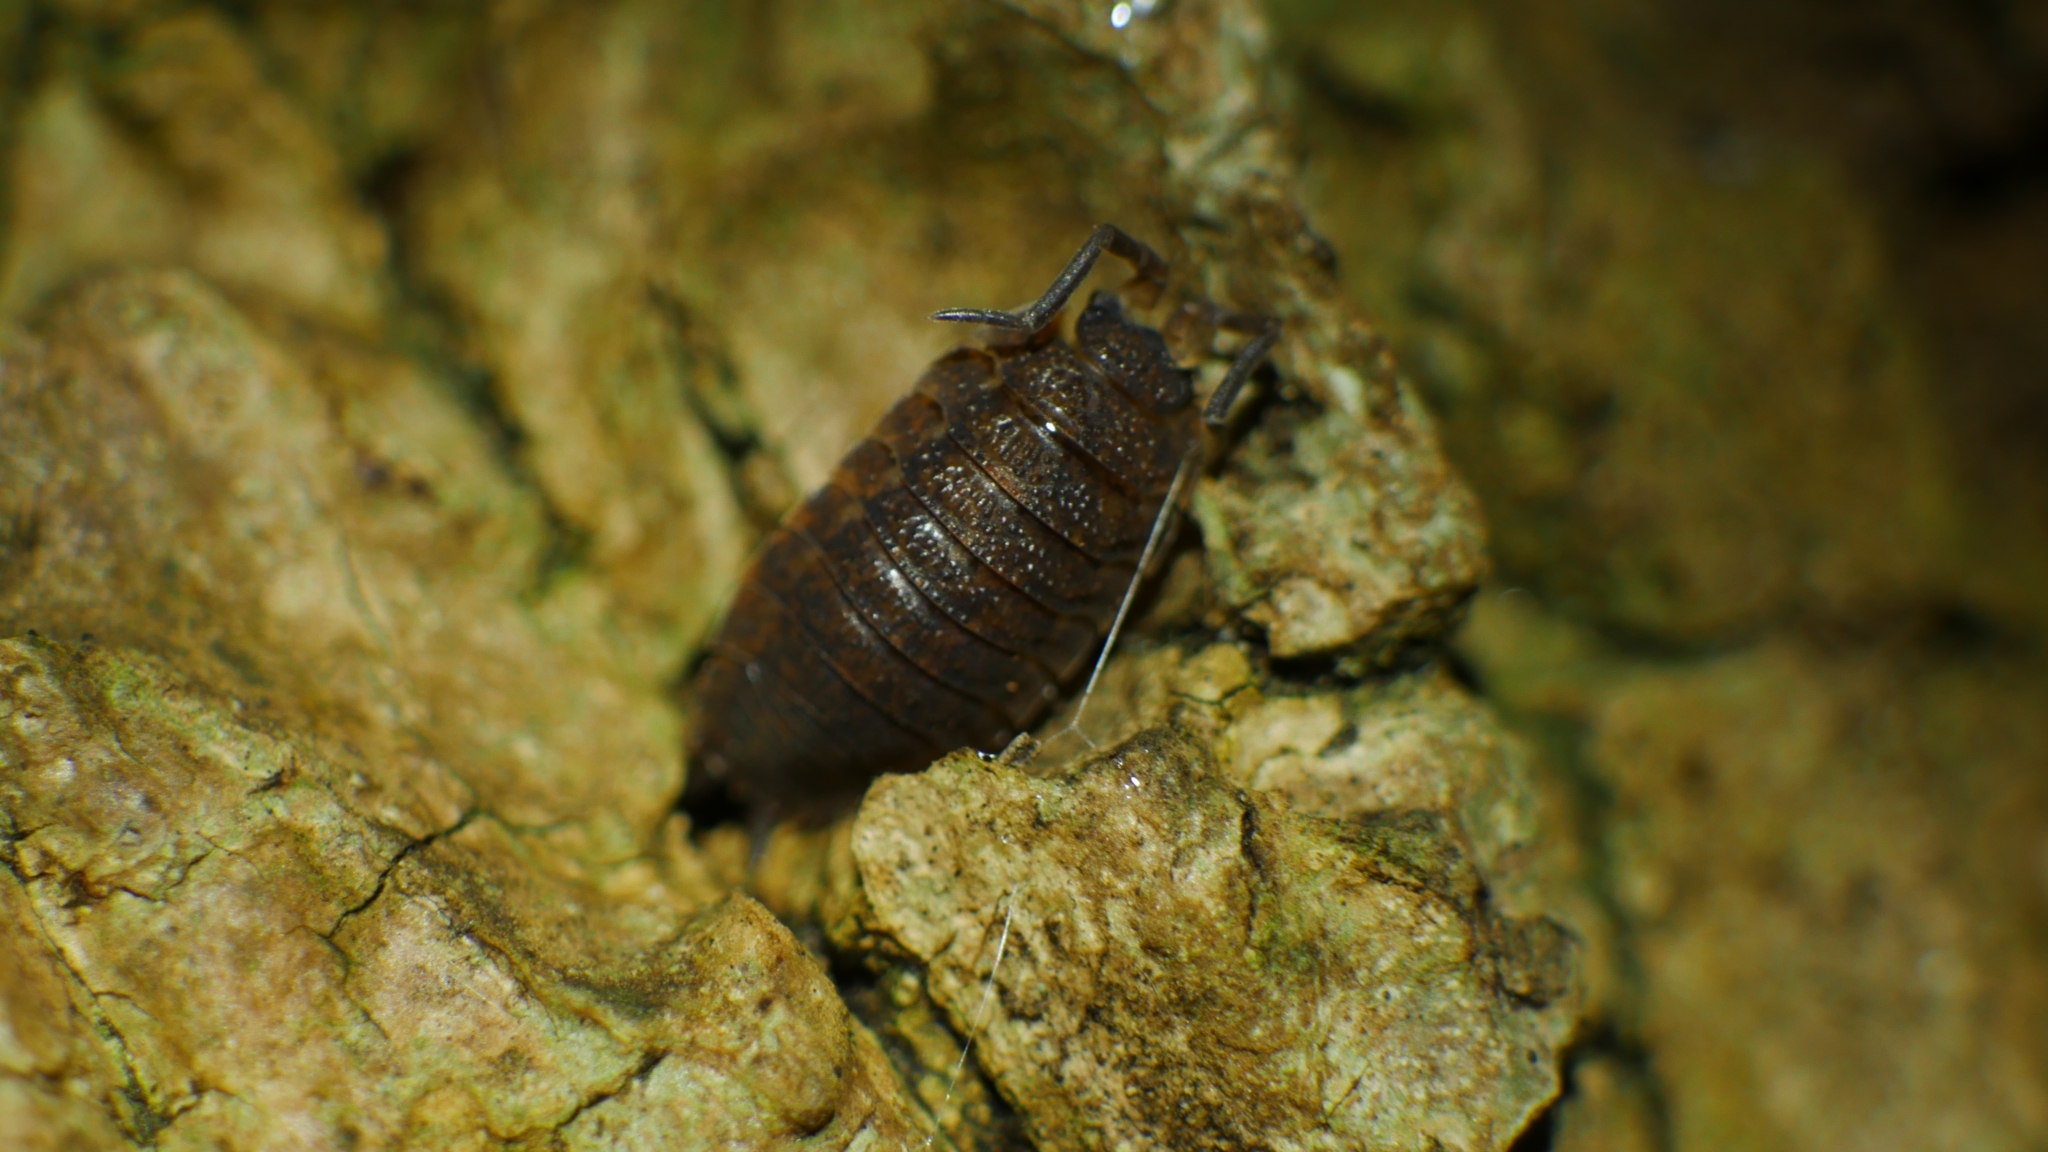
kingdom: Animalia
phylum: Arthropoda
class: Malacostraca
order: Isopoda
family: Porcellionidae
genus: Porcellio
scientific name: Porcellio scaber
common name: Common rough woodlouse
